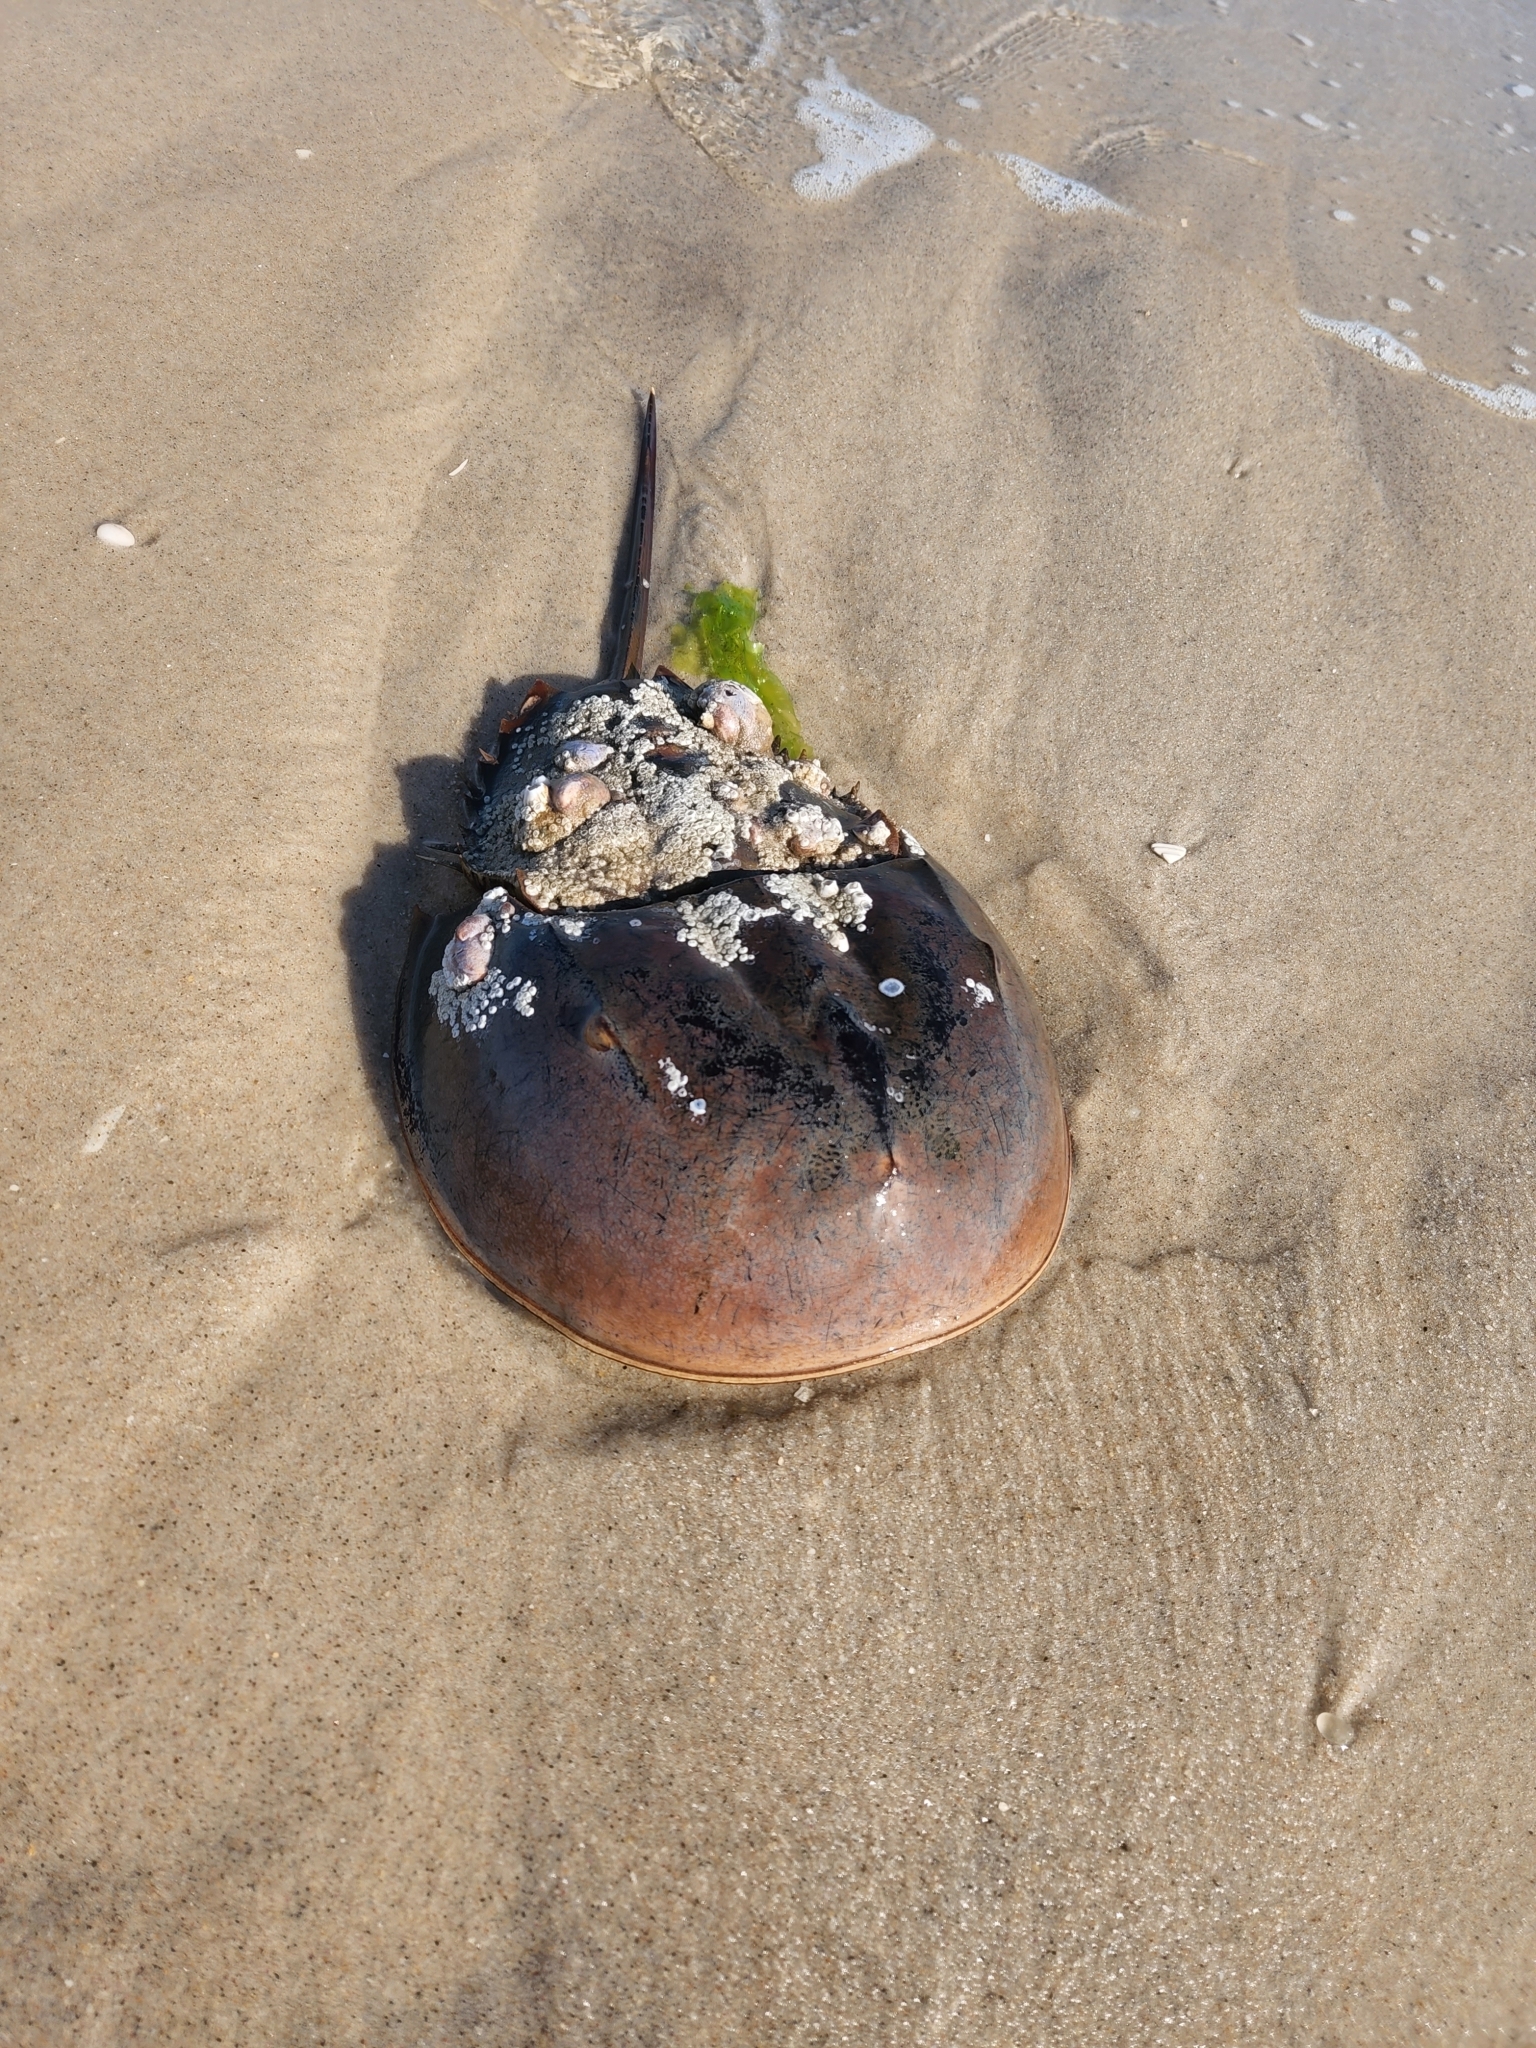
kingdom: Animalia
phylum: Arthropoda
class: Merostomata
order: Xiphosurida
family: Limulidae
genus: Limulus
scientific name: Limulus polyphemus
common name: Horseshoe crab
